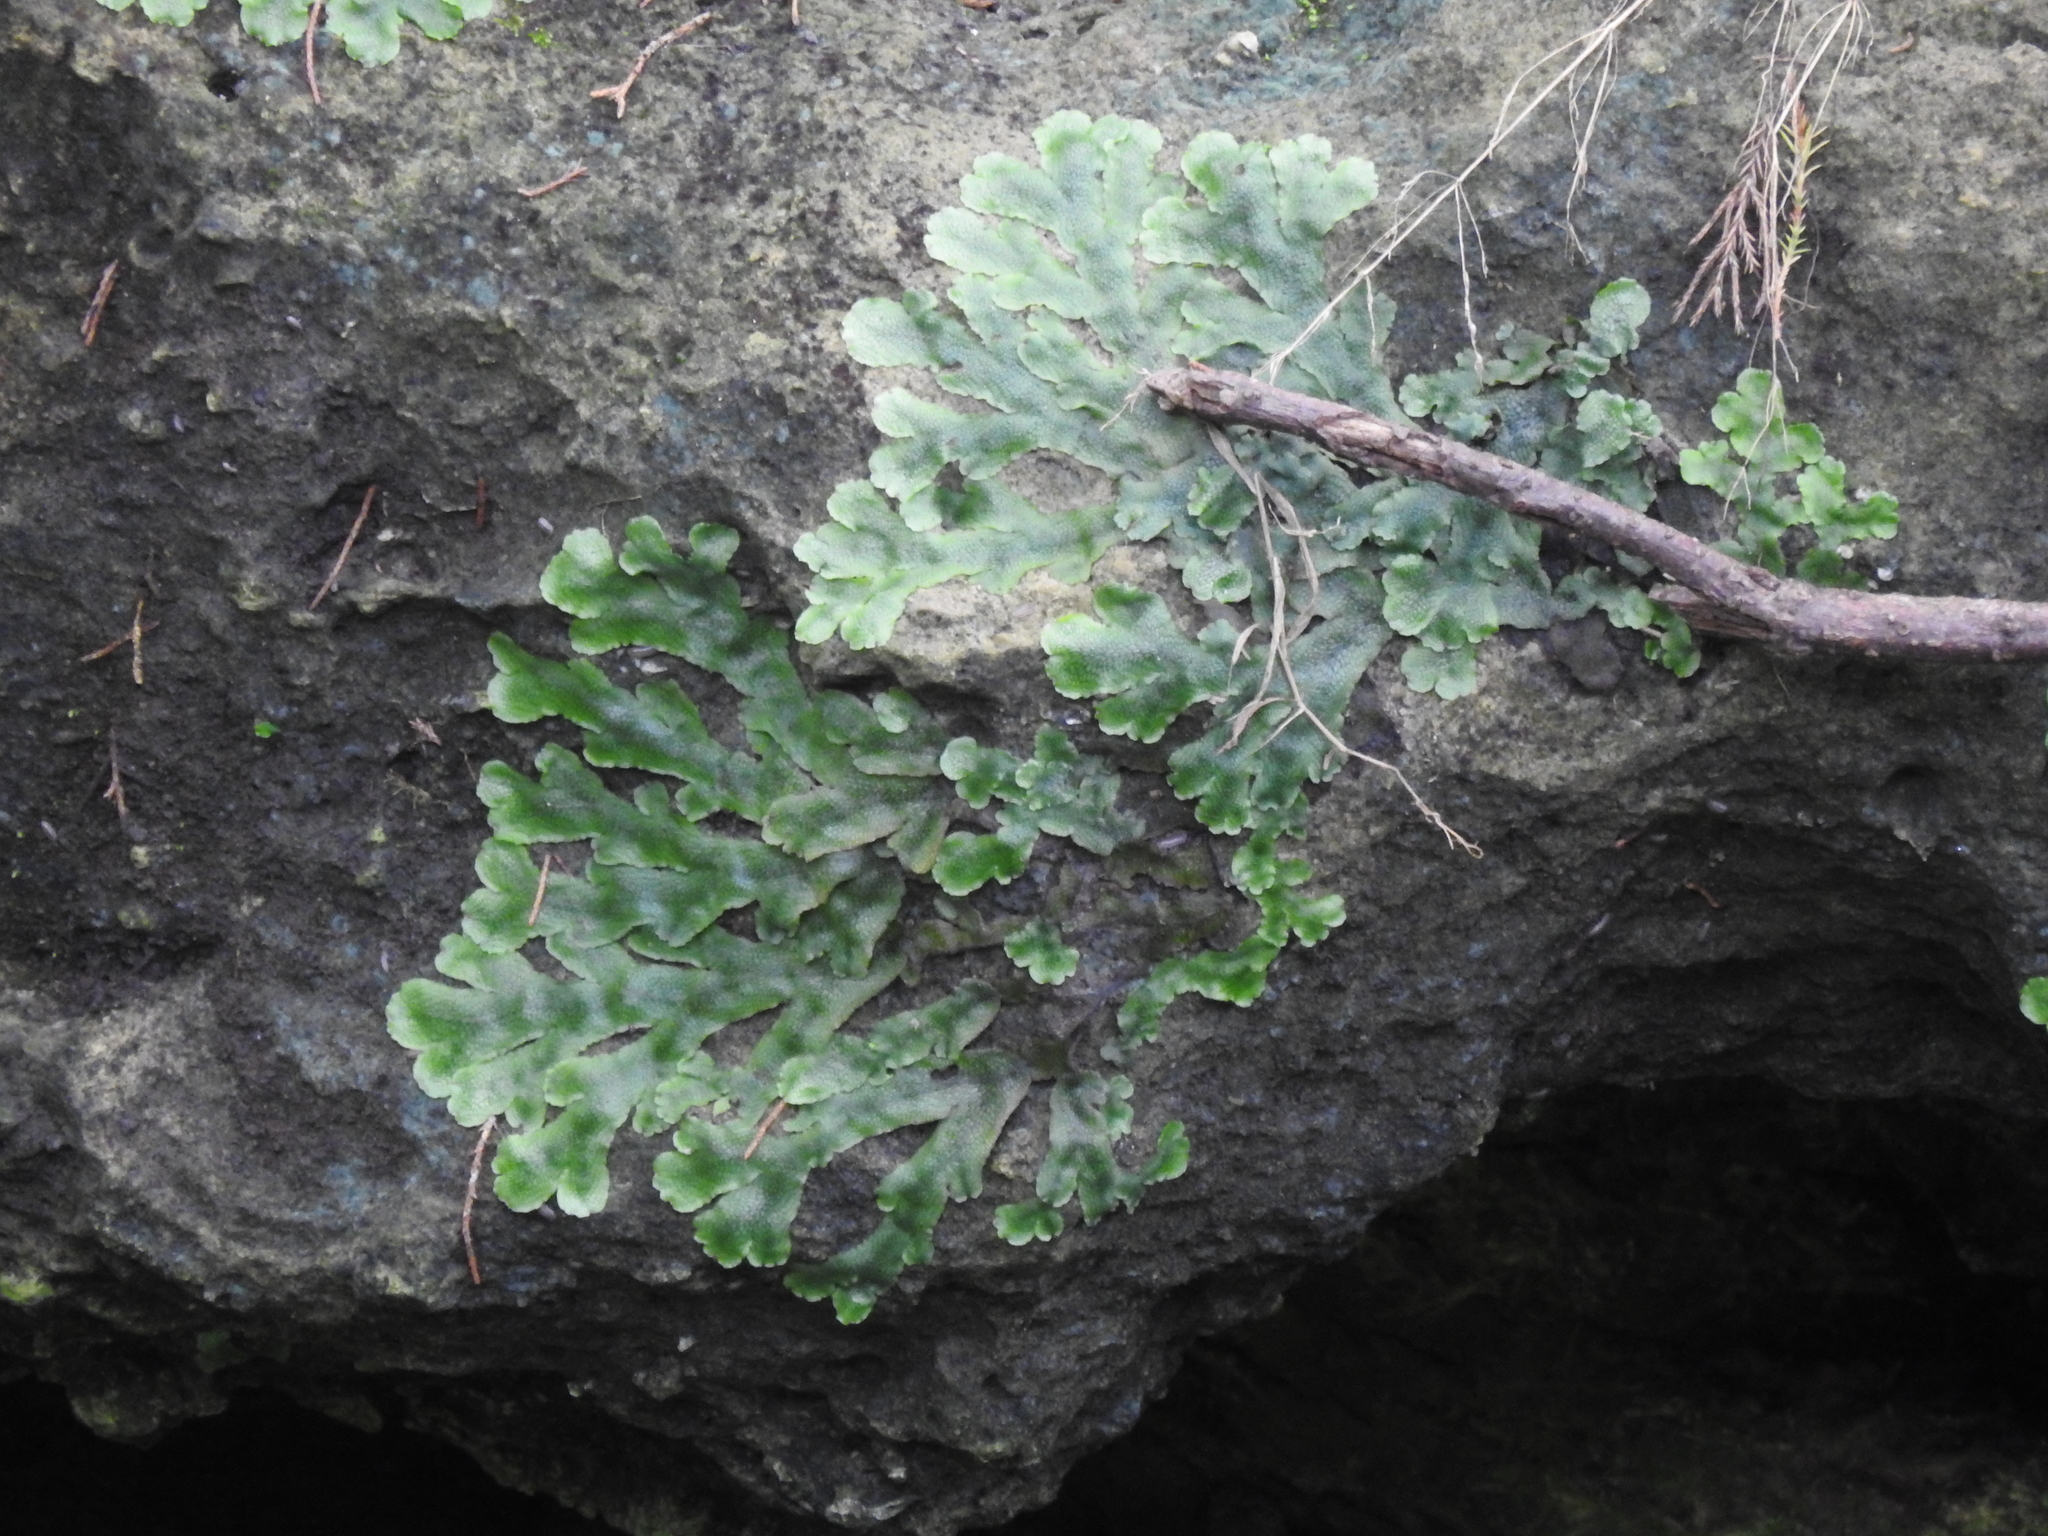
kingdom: Plantae
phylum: Marchantiophyta
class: Marchantiopsida
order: Marchantiales
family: Conocephalaceae
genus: Conocephalum
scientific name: Conocephalum salebrosum
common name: Cat-tongue liverwort
